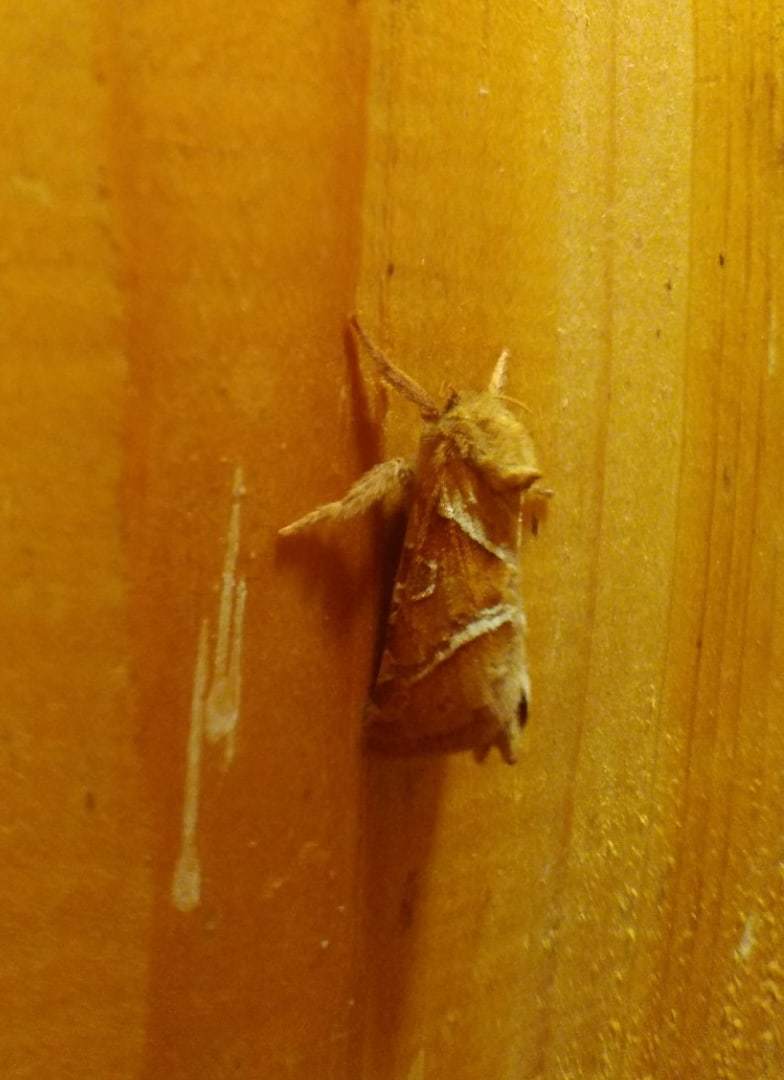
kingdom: Animalia
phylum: Arthropoda
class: Insecta
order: Lepidoptera
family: Hepialidae
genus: Triodia
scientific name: Triodia sylvina
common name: Orange swift
